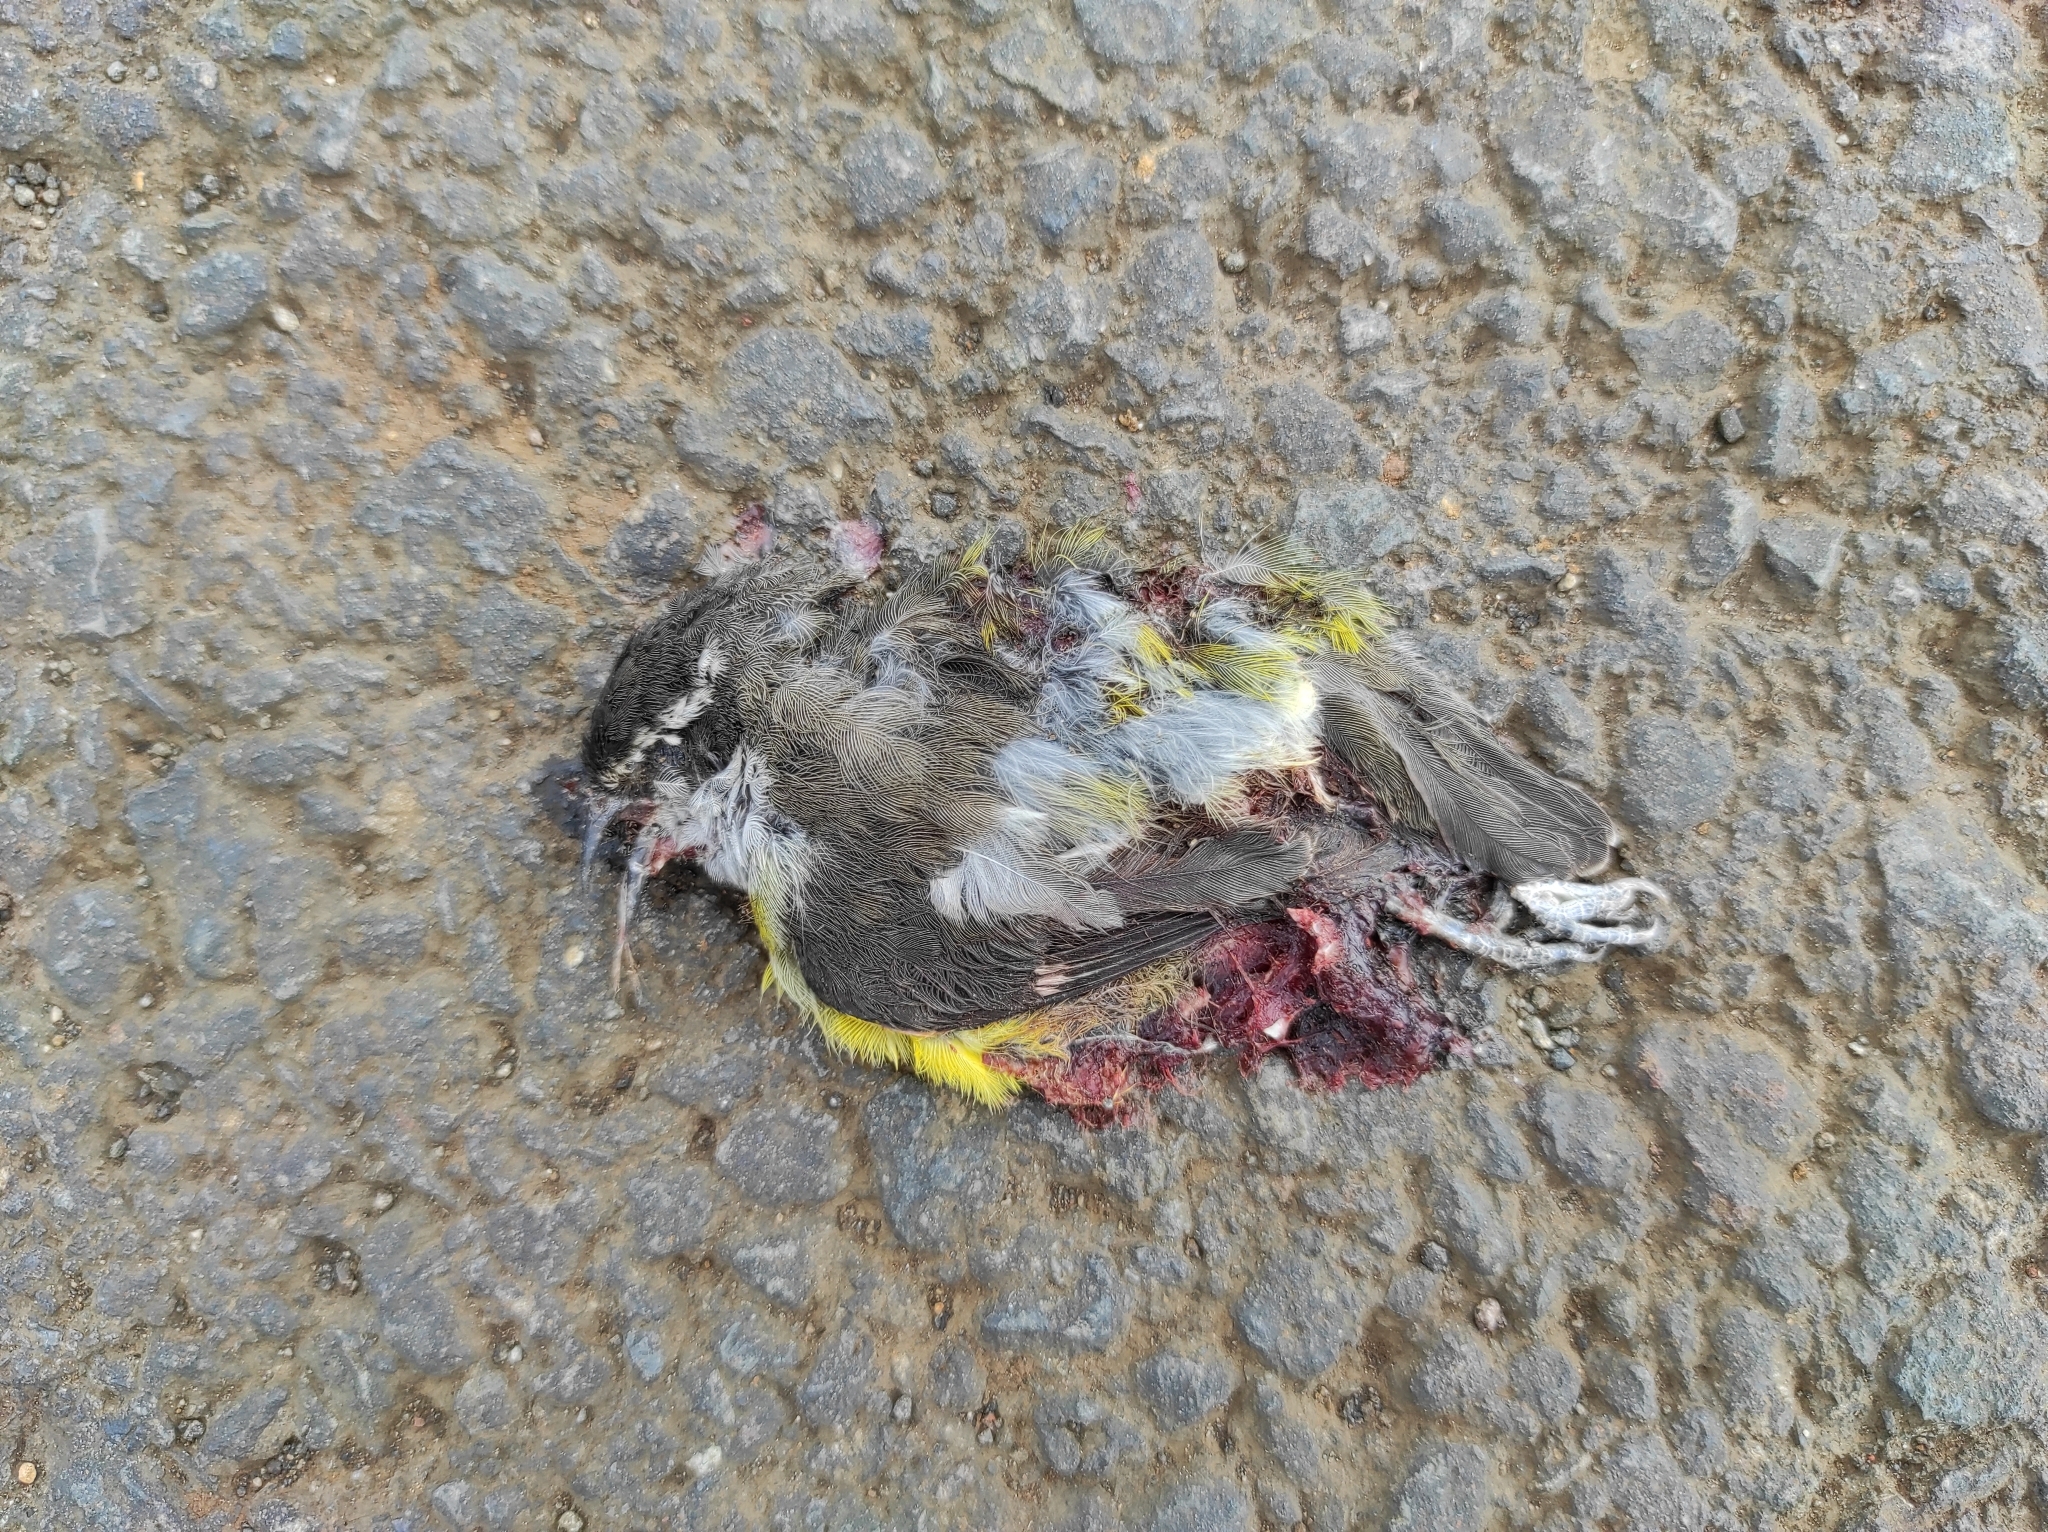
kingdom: Animalia
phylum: Chordata
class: Aves
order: Passeriformes
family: Thraupidae
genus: Coereba
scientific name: Coereba flaveola
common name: Bananaquit
